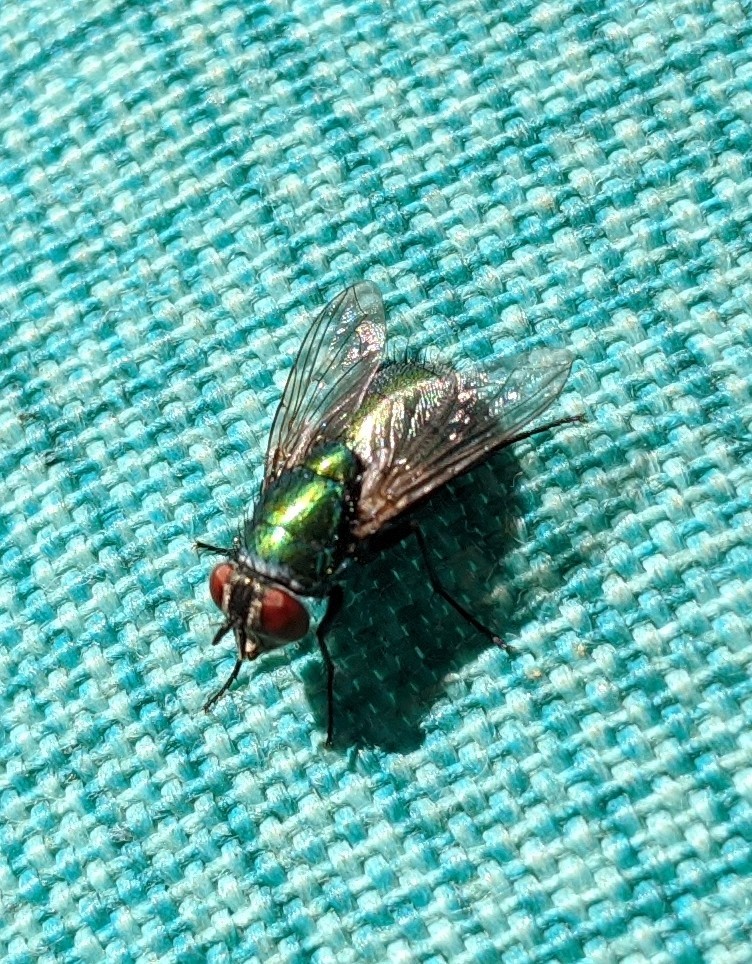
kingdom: Animalia
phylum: Arthropoda
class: Insecta
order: Diptera
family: Calliphoridae
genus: Lucilia
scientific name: Lucilia sericata
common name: Blow fly
